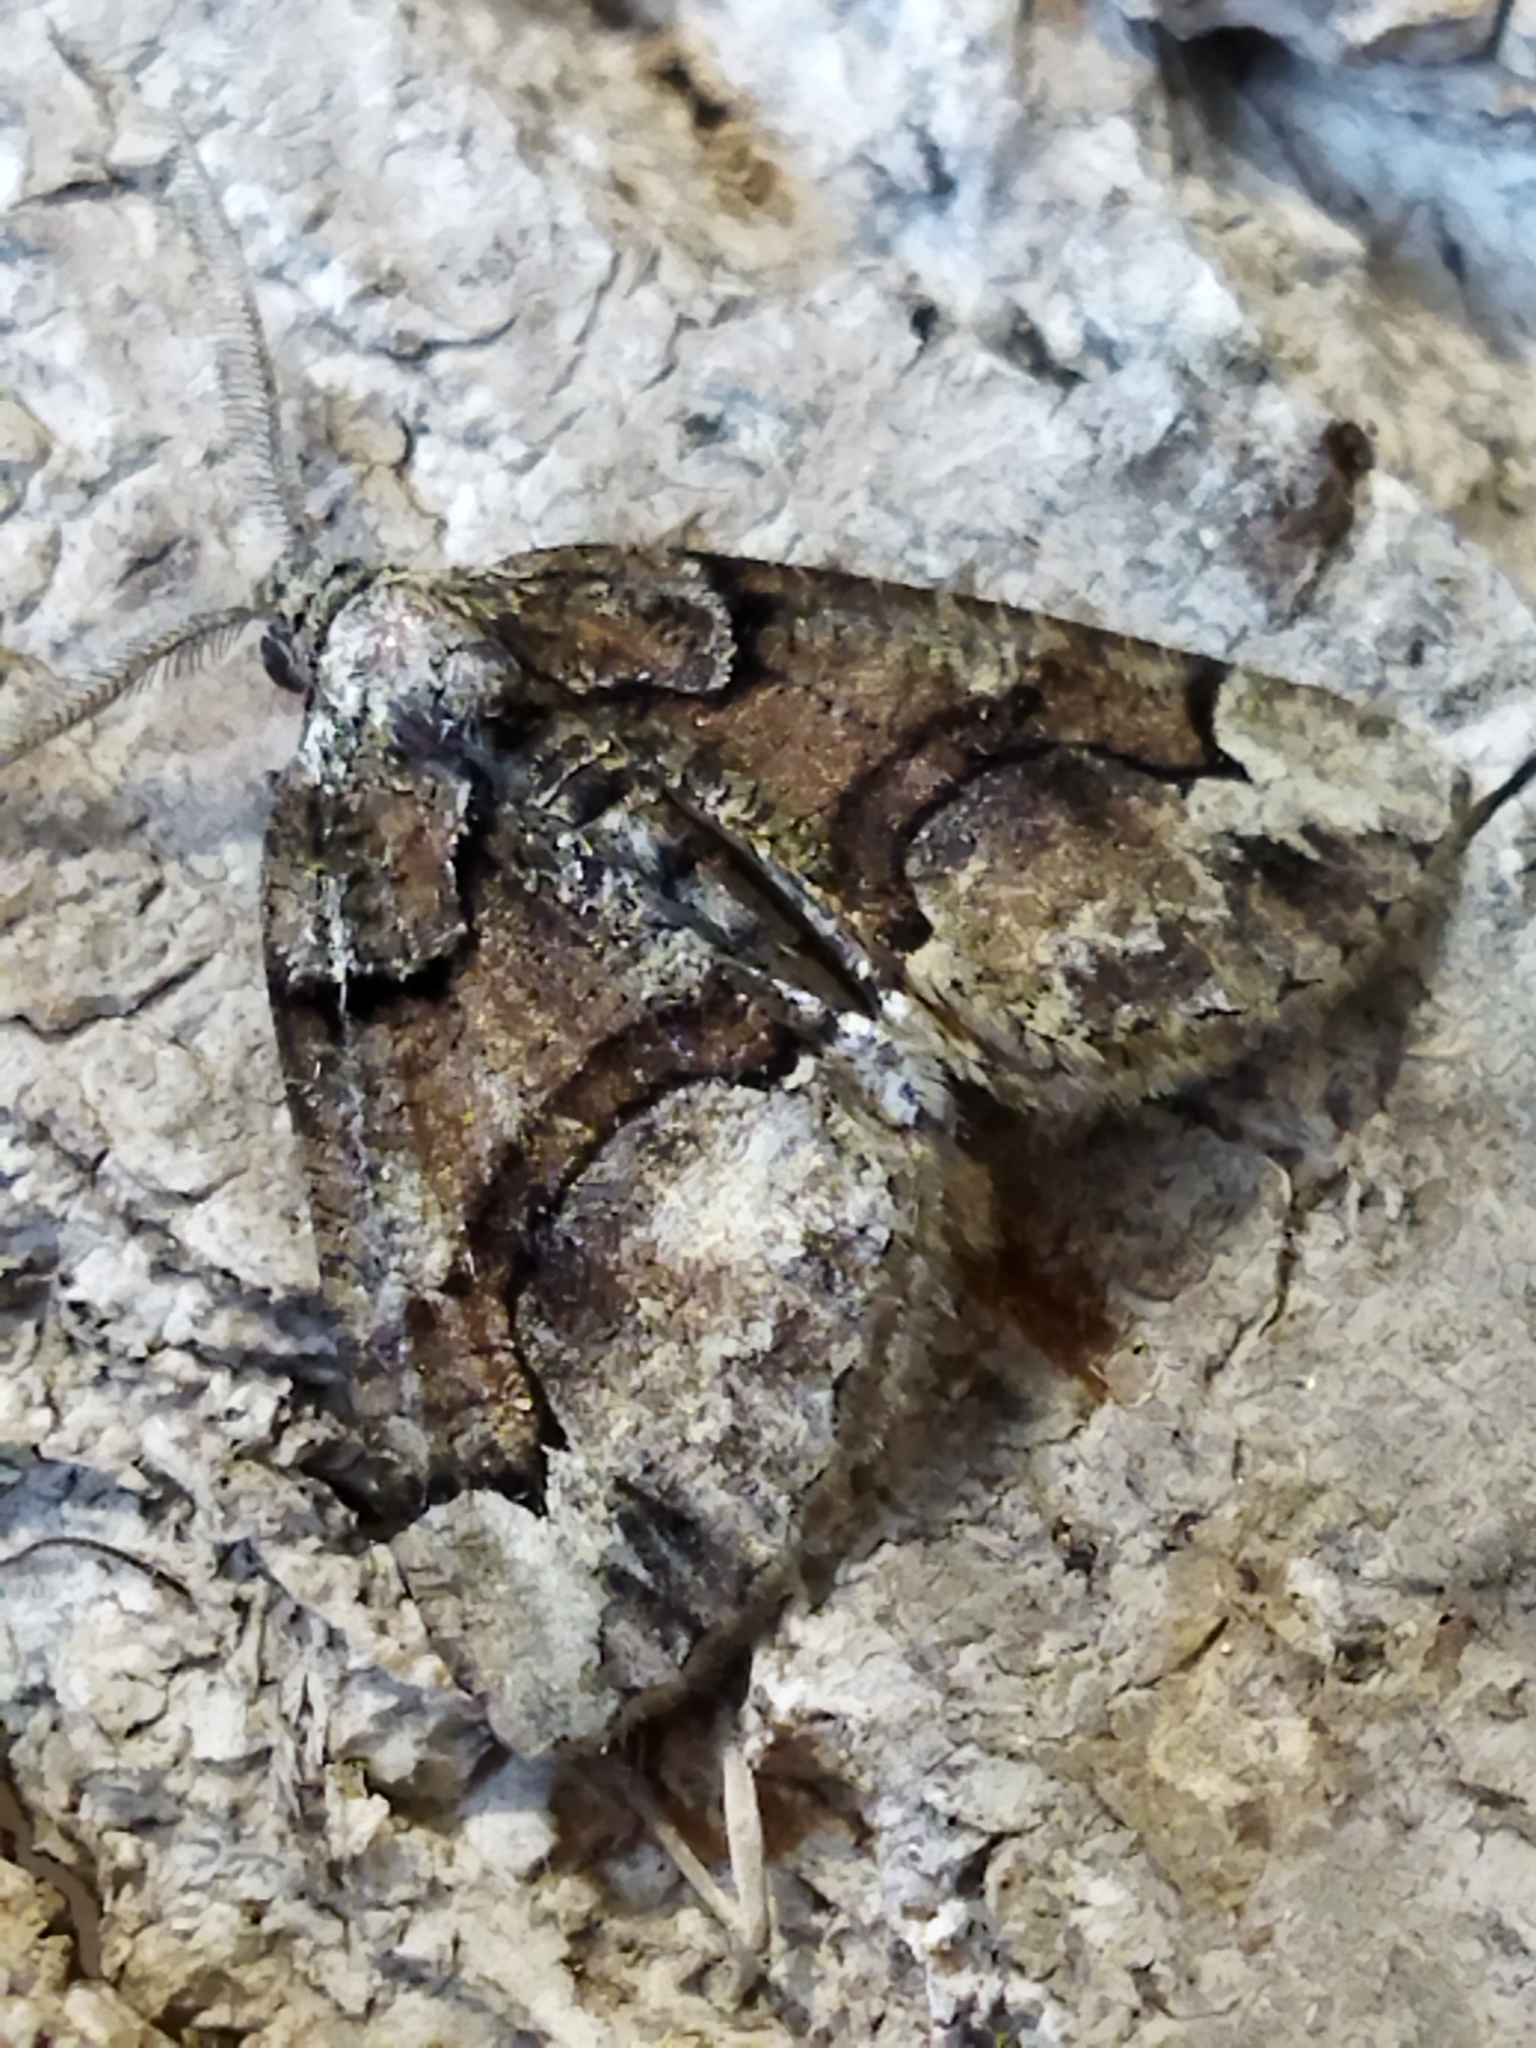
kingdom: Animalia
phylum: Arthropoda
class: Insecta
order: Lepidoptera
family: Geometridae
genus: Asovia
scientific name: Asovia maeoticaria
